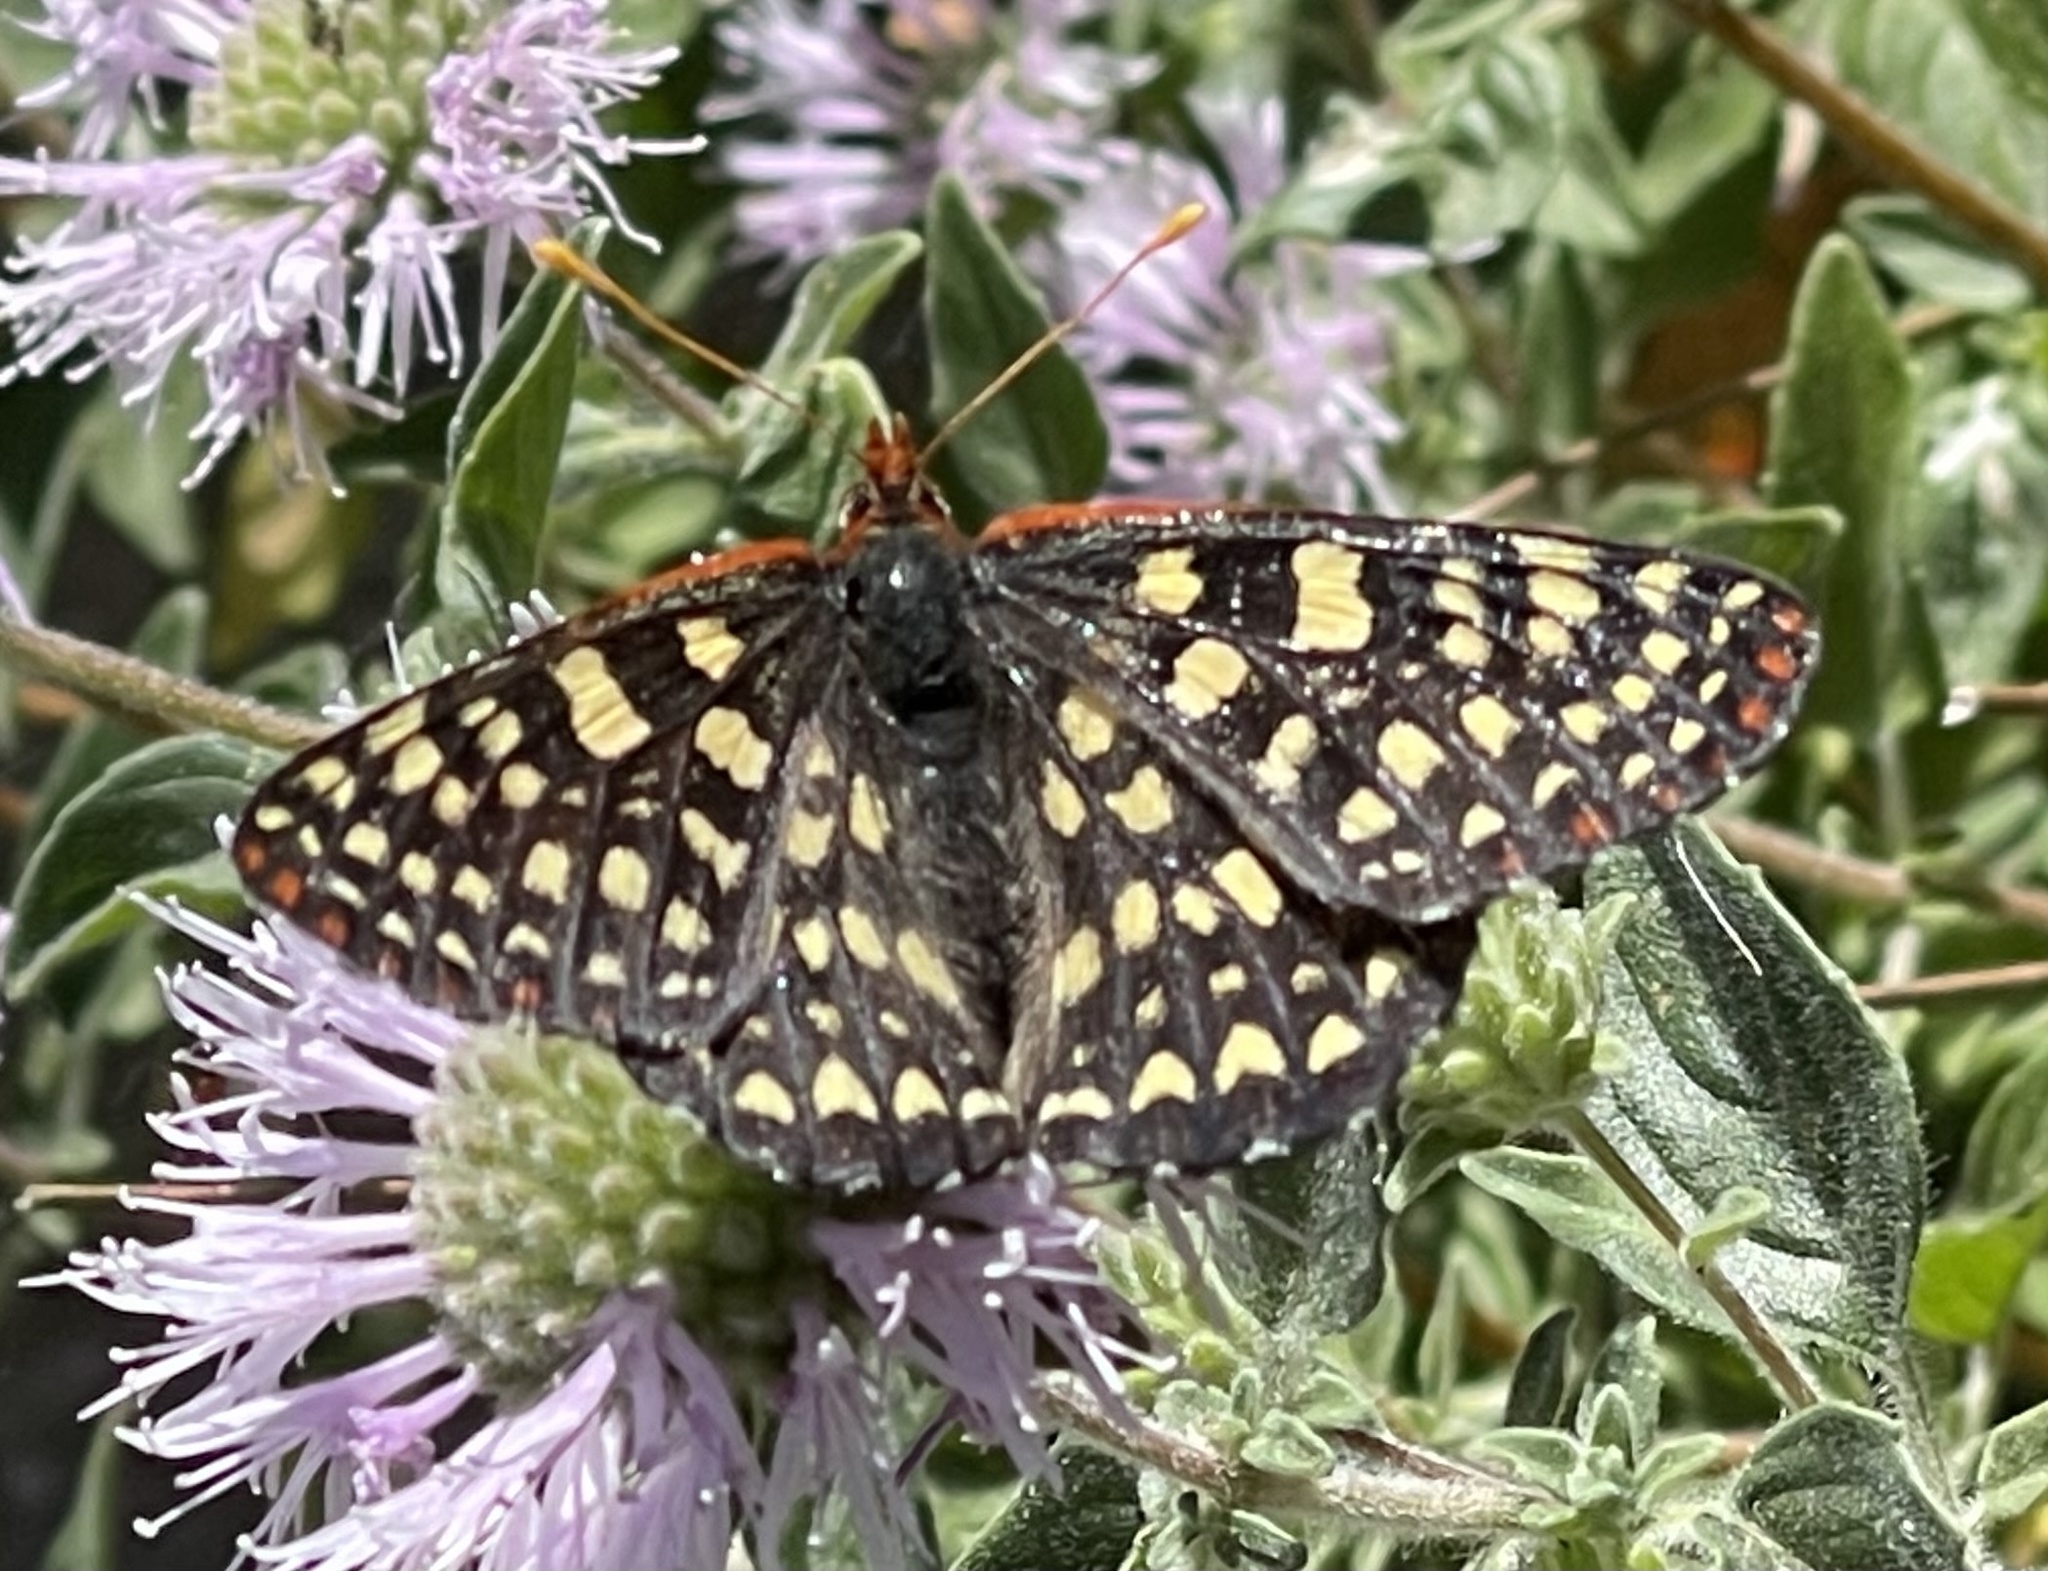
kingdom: Animalia
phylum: Arthropoda
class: Insecta
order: Lepidoptera
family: Nymphalidae
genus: Occidryas
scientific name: Occidryas chalcedona
